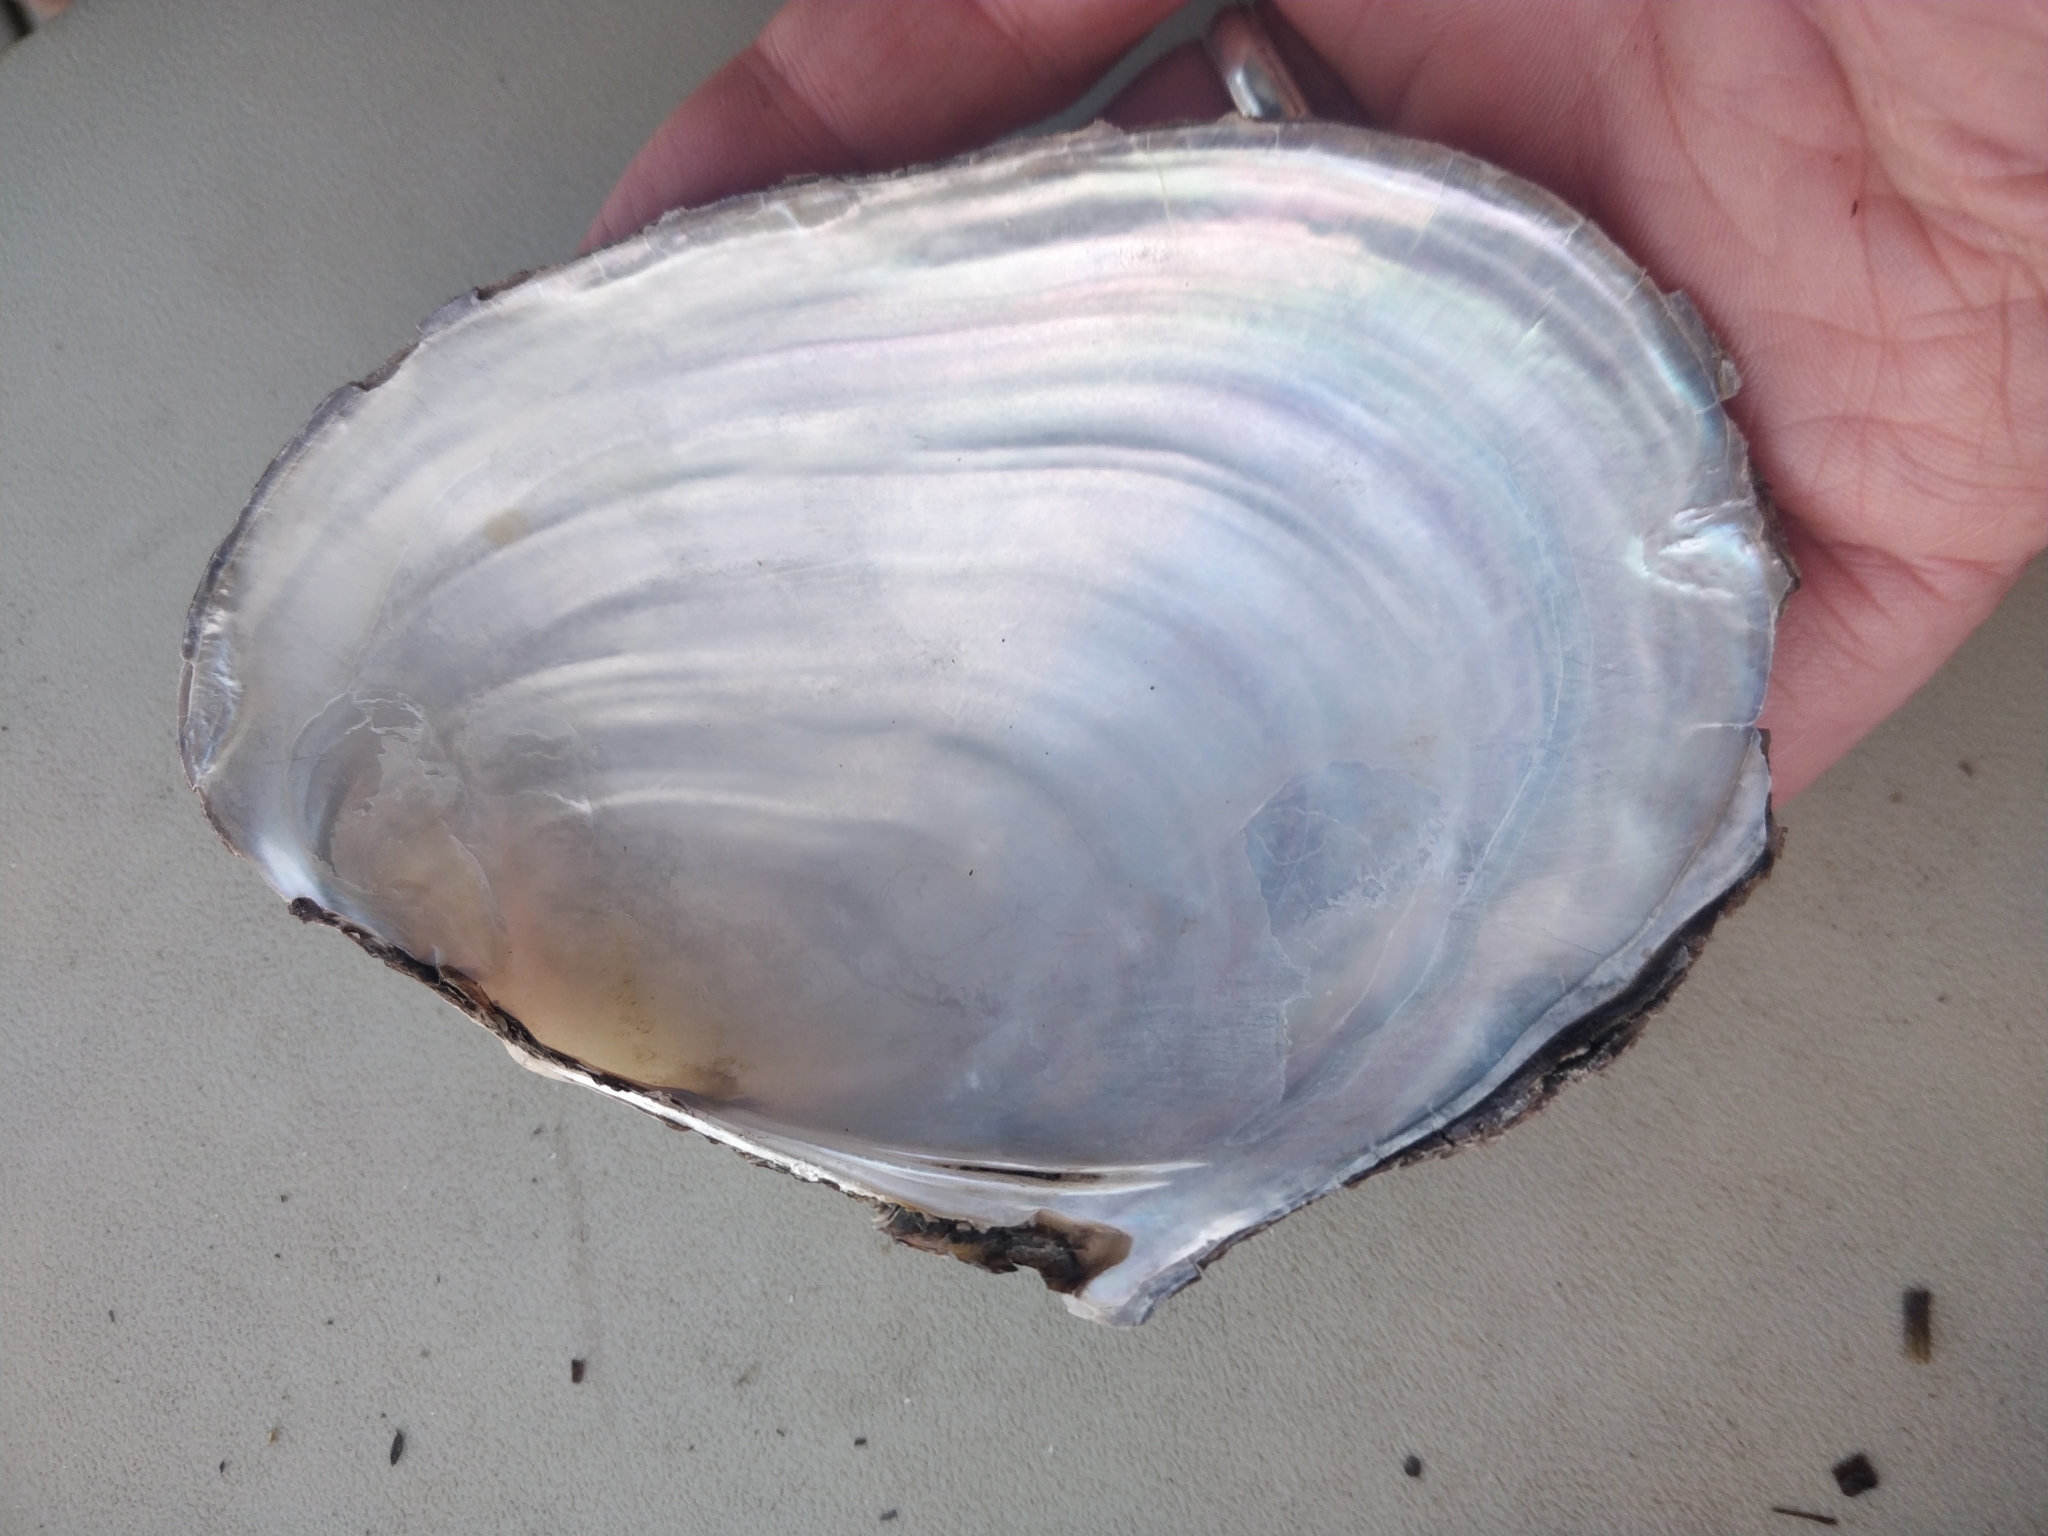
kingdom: Animalia
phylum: Mollusca
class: Bivalvia
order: Unionida
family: Unionidae
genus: Potamilus
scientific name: Potamilus fragilis
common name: Fragile papershell
